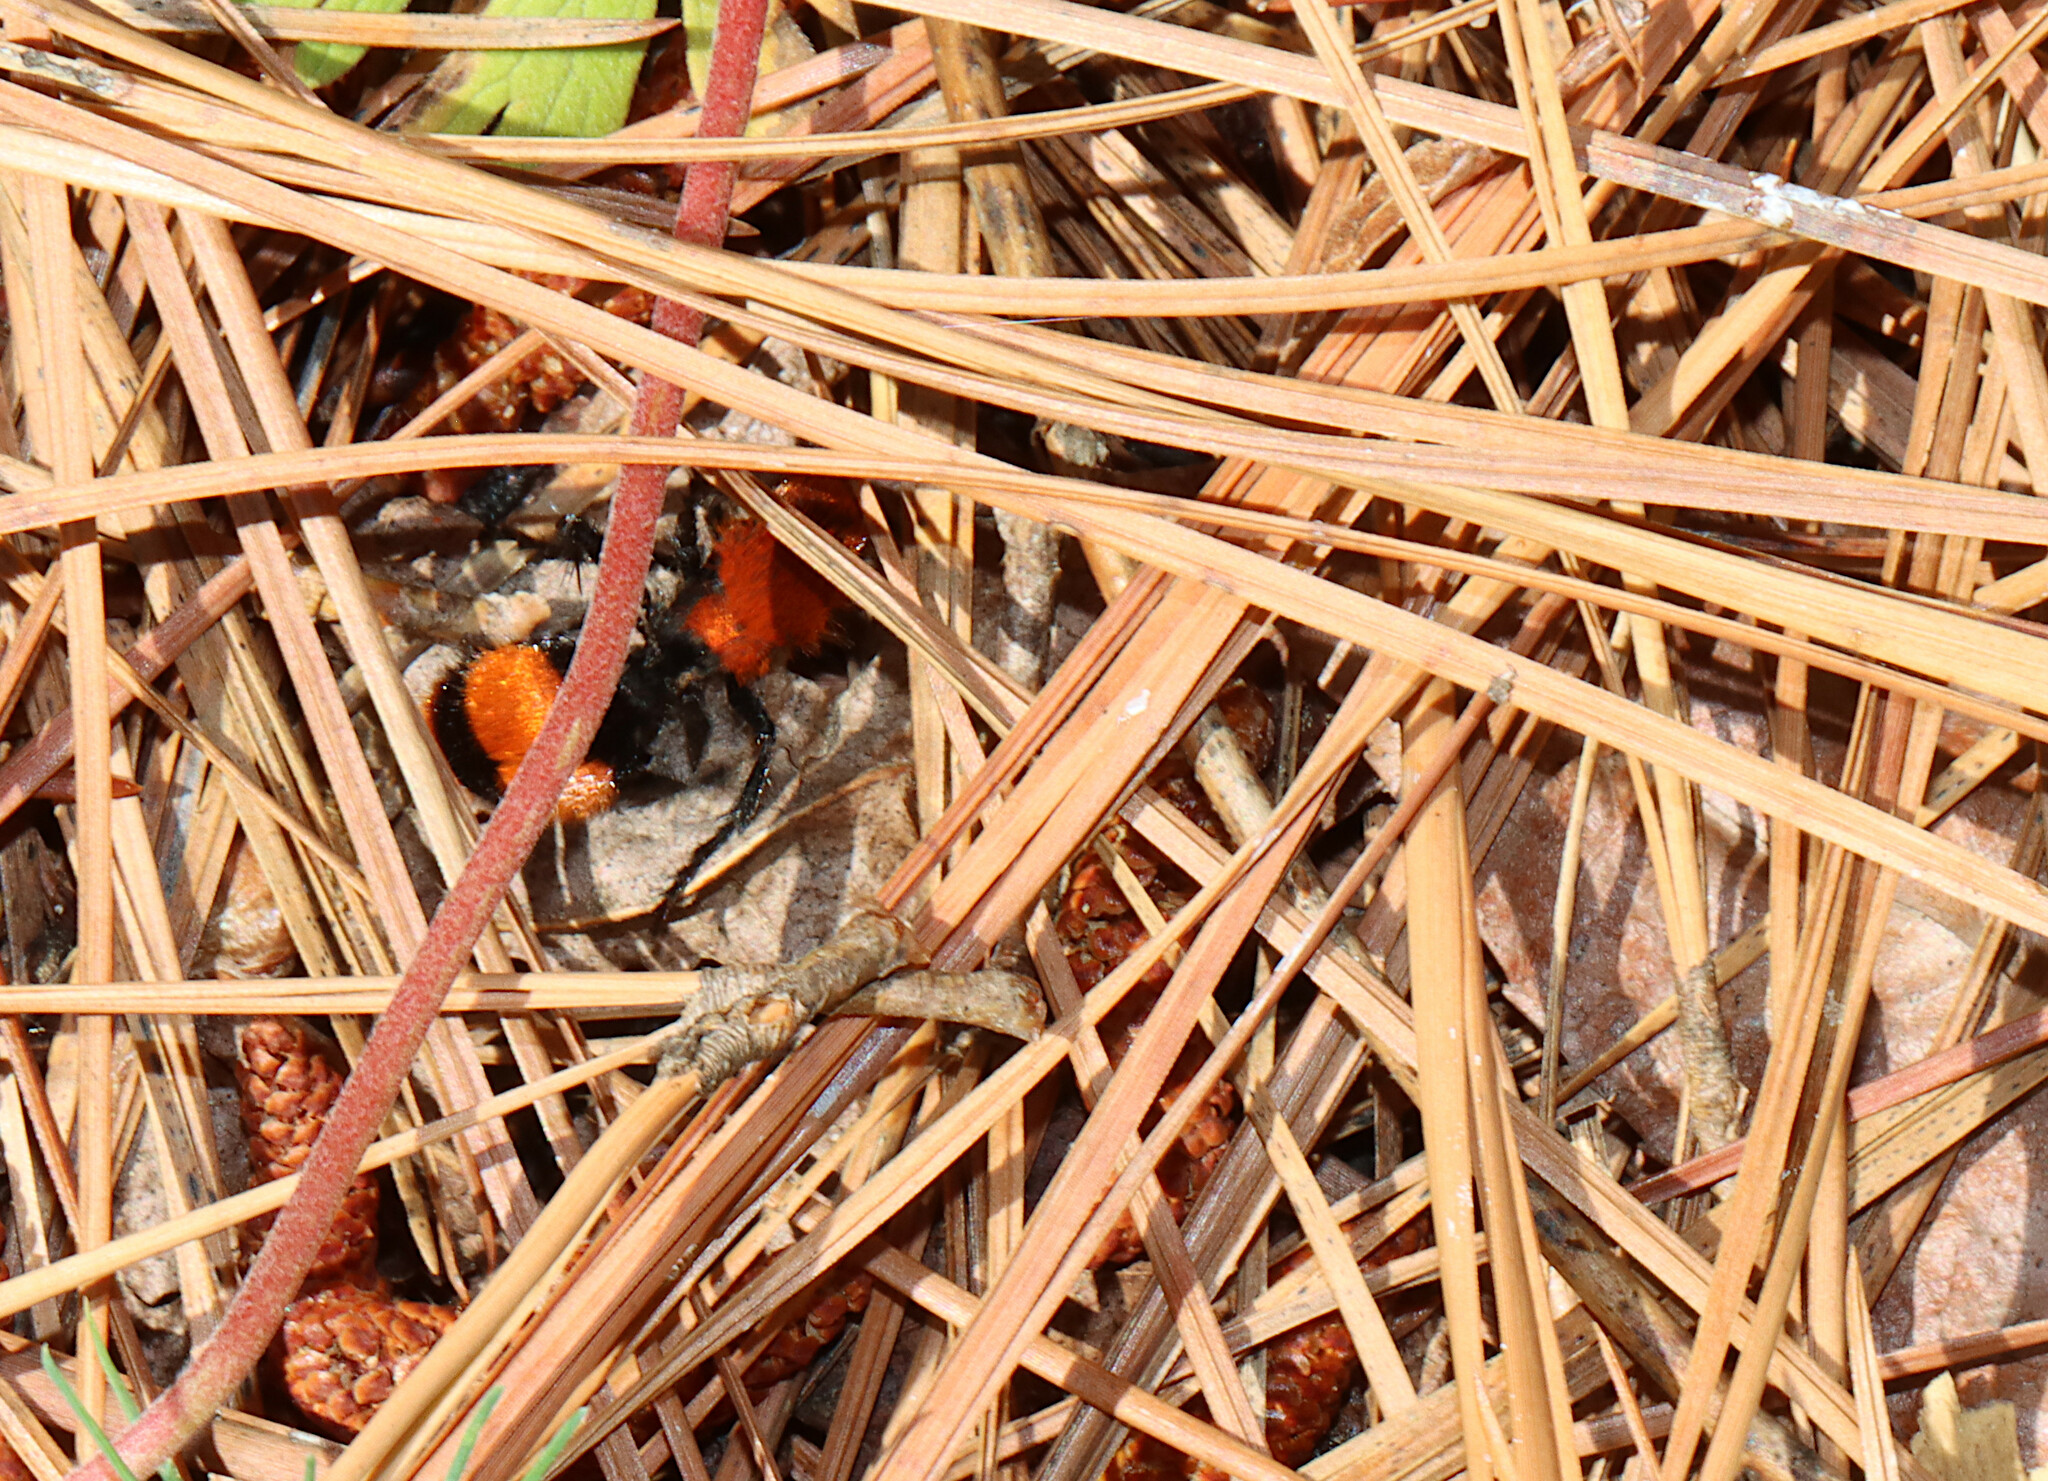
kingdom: Animalia
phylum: Arthropoda
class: Insecta
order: Hymenoptera
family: Mutillidae
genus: Dasymutilla
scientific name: Dasymutilla occidentalis
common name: Common eastern velvet ant
